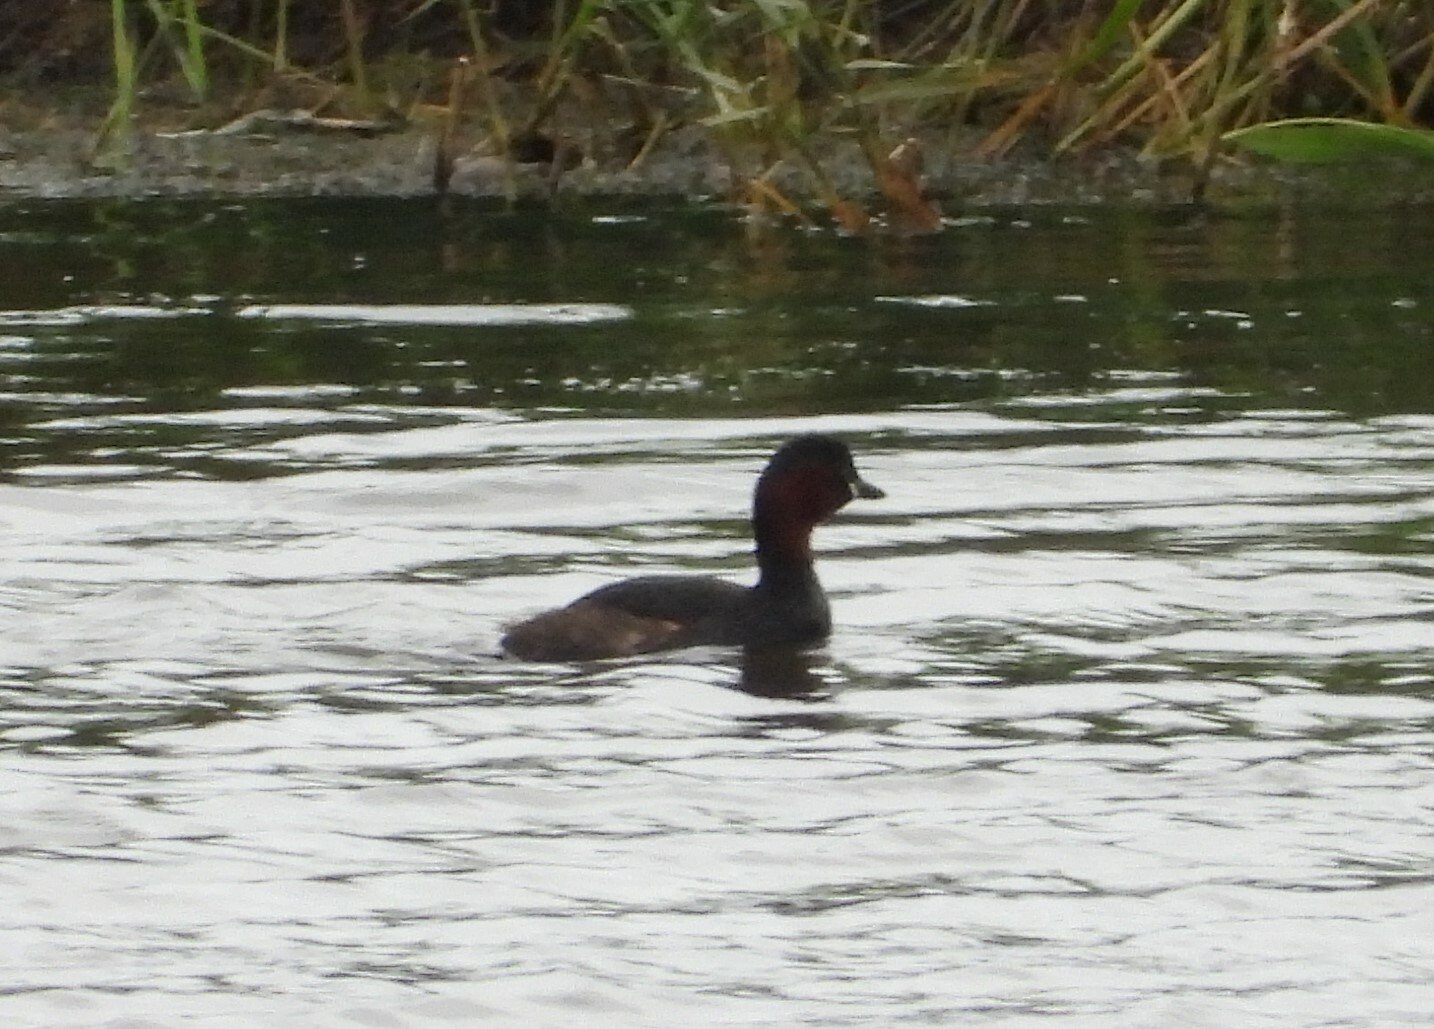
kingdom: Animalia
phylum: Chordata
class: Aves
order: Podicipediformes
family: Podicipedidae
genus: Tachybaptus
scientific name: Tachybaptus ruficollis
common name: Little grebe
